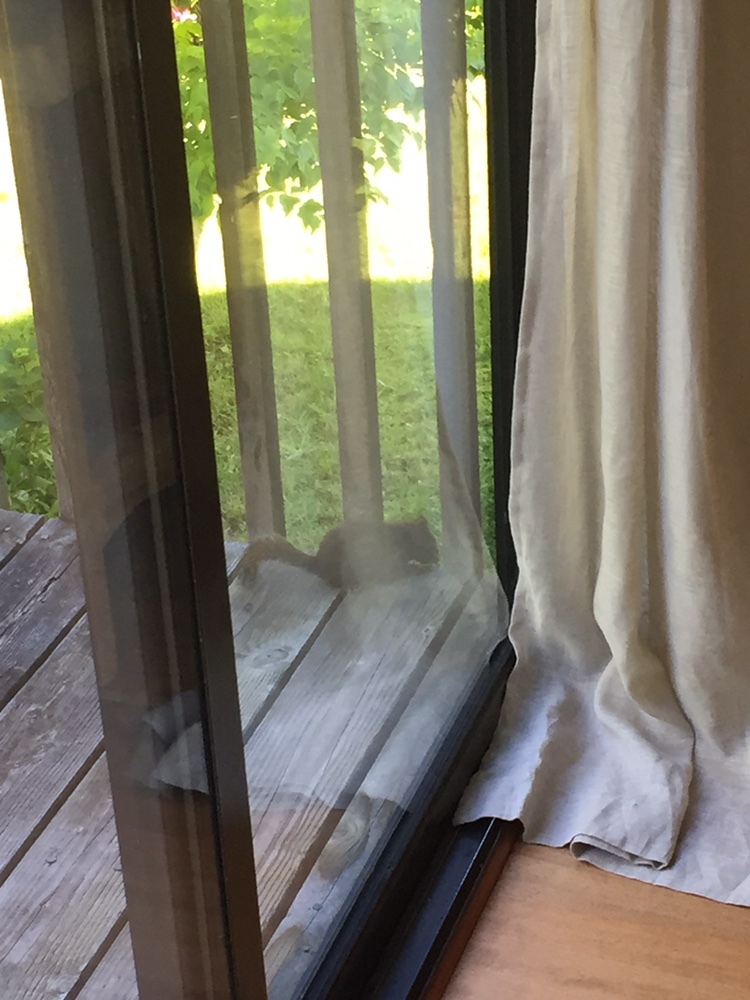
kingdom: Animalia
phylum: Chordata
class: Mammalia
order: Rodentia
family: Sciuridae
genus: Tamiasciurus
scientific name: Tamiasciurus douglasii
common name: Douglas's squirrel
